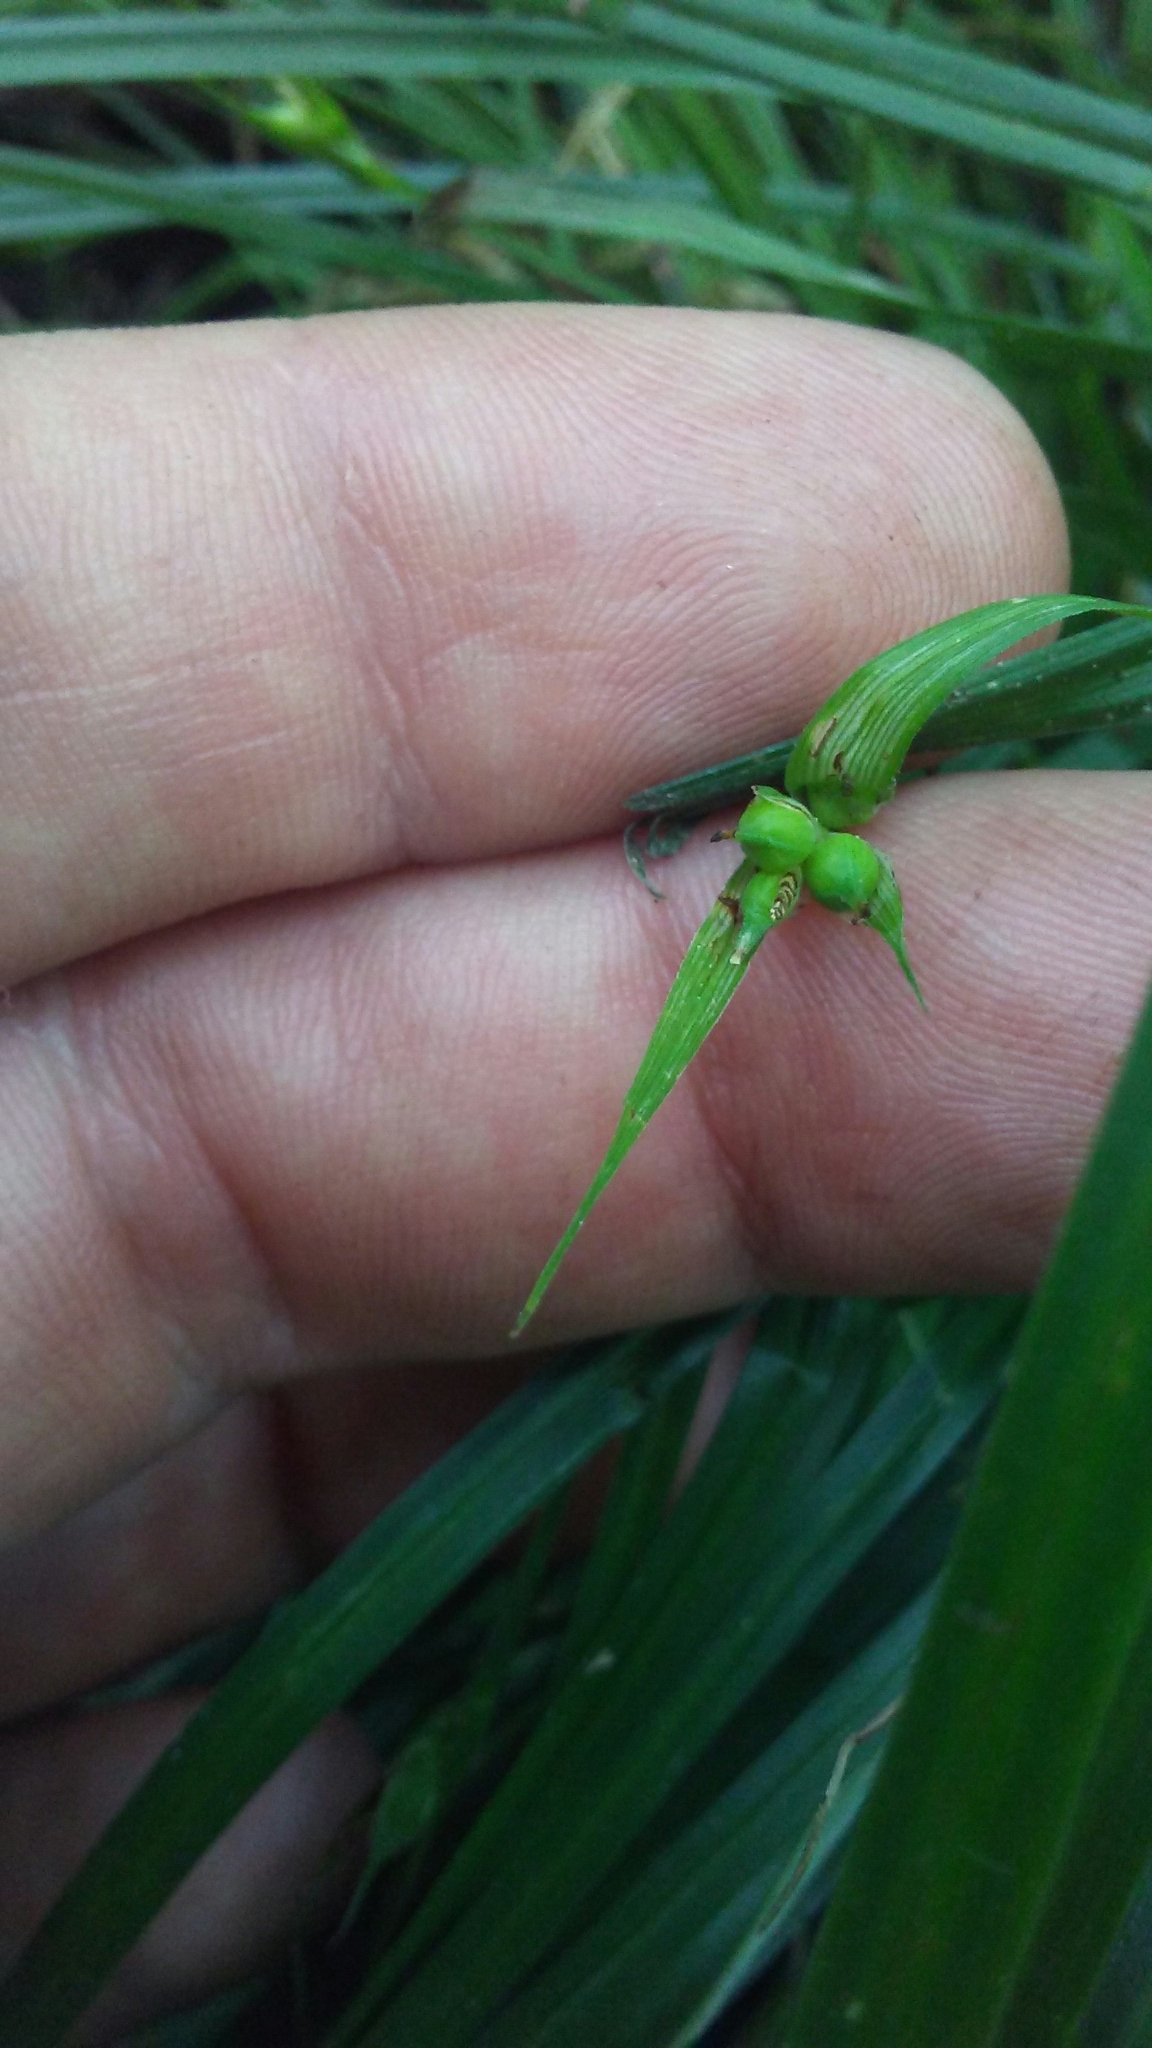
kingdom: Plantae
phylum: Tracheophyta
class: Liliopsida
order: Poales
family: Cyperaceae
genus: Carex
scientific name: Carex jamesii
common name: Grass sedge
